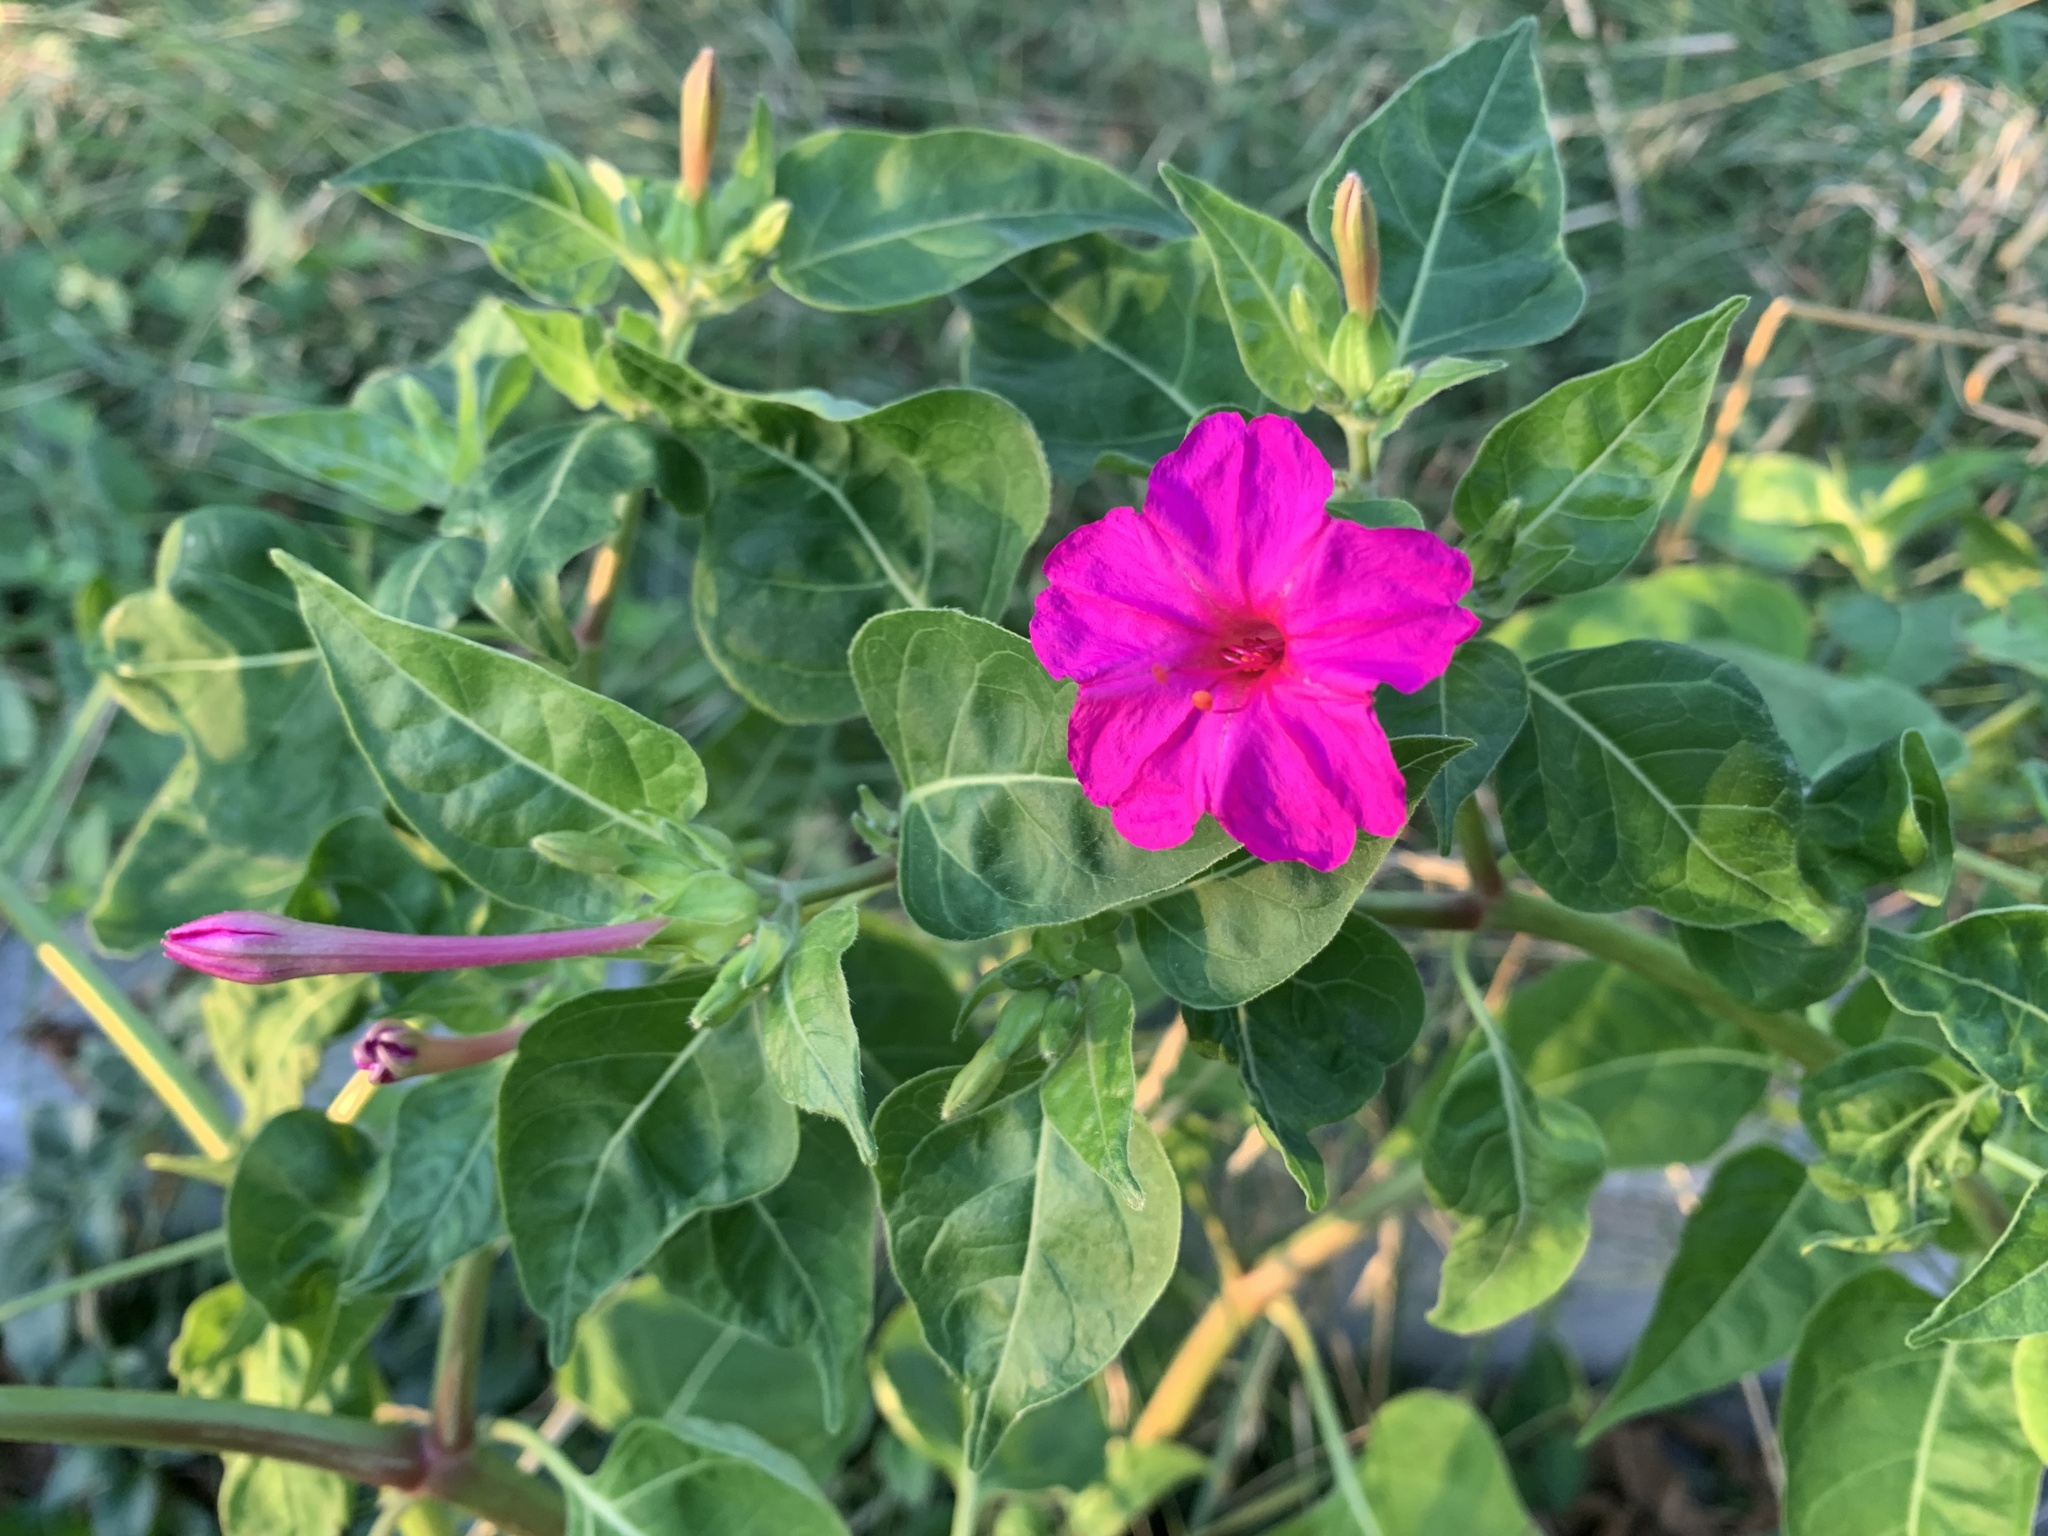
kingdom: Plantae
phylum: Tracheophyta
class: Magnoliopsida
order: Caryophyllales
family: Nyctaginaceae
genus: Mirabilis
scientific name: Mirabilis jalapa
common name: Marvel-of-peru
